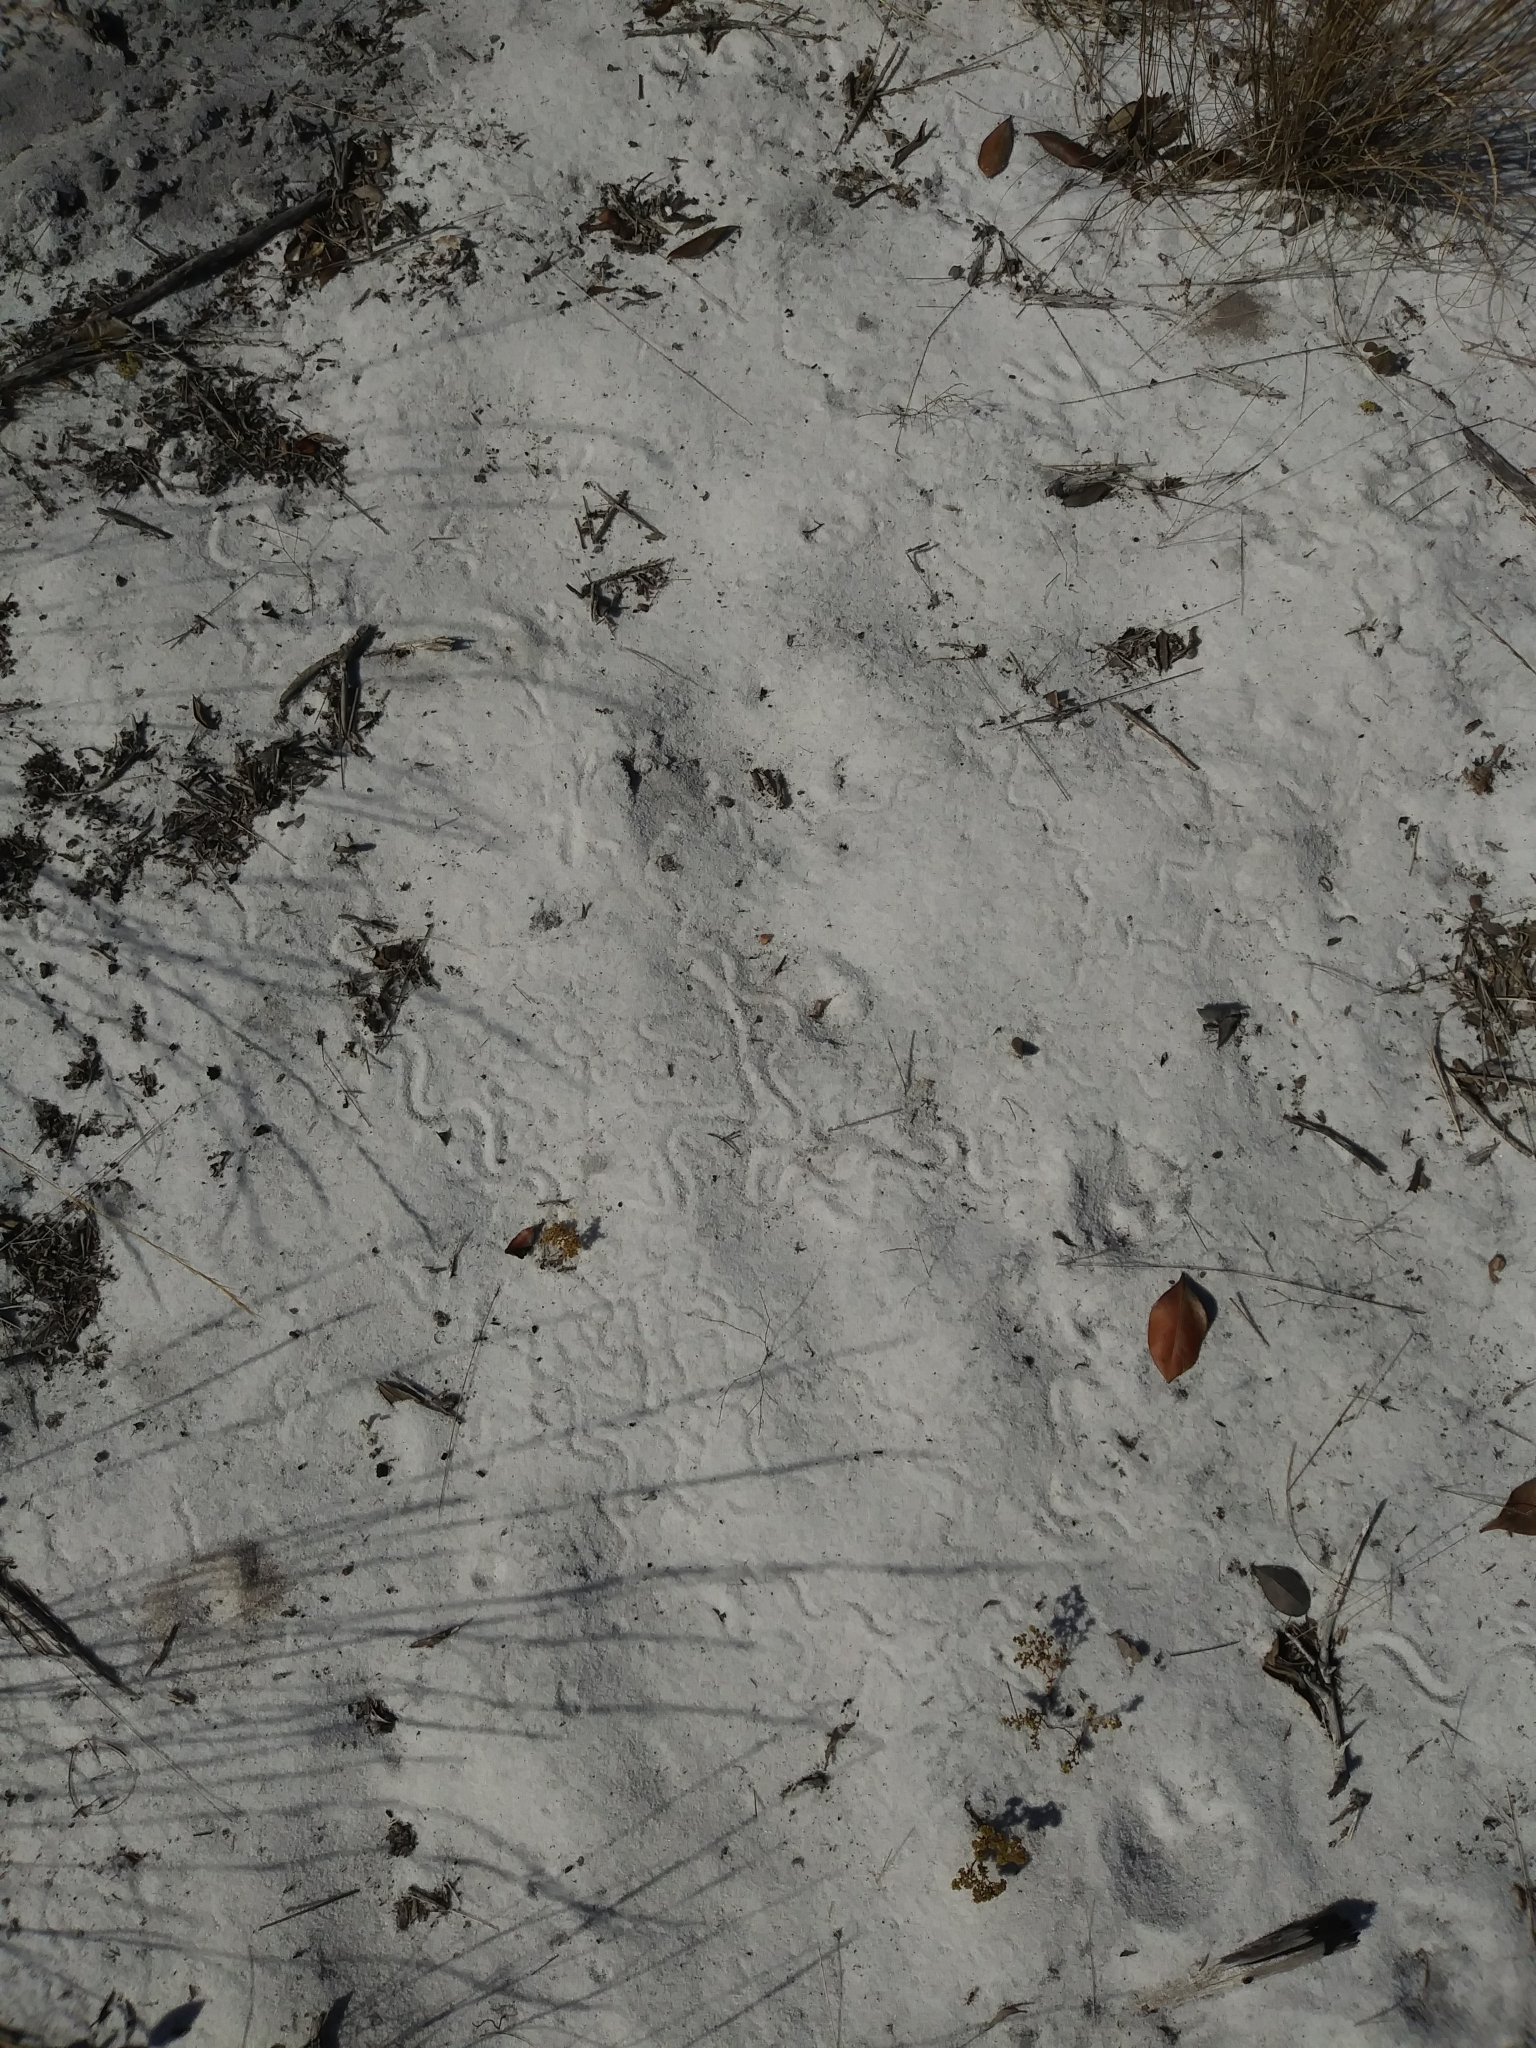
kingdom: Animalia
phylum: Chordata
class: Squamata
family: Scincidae
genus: Plestiodon
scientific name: Plestiodon reynoldsi
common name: Florida sand skink
